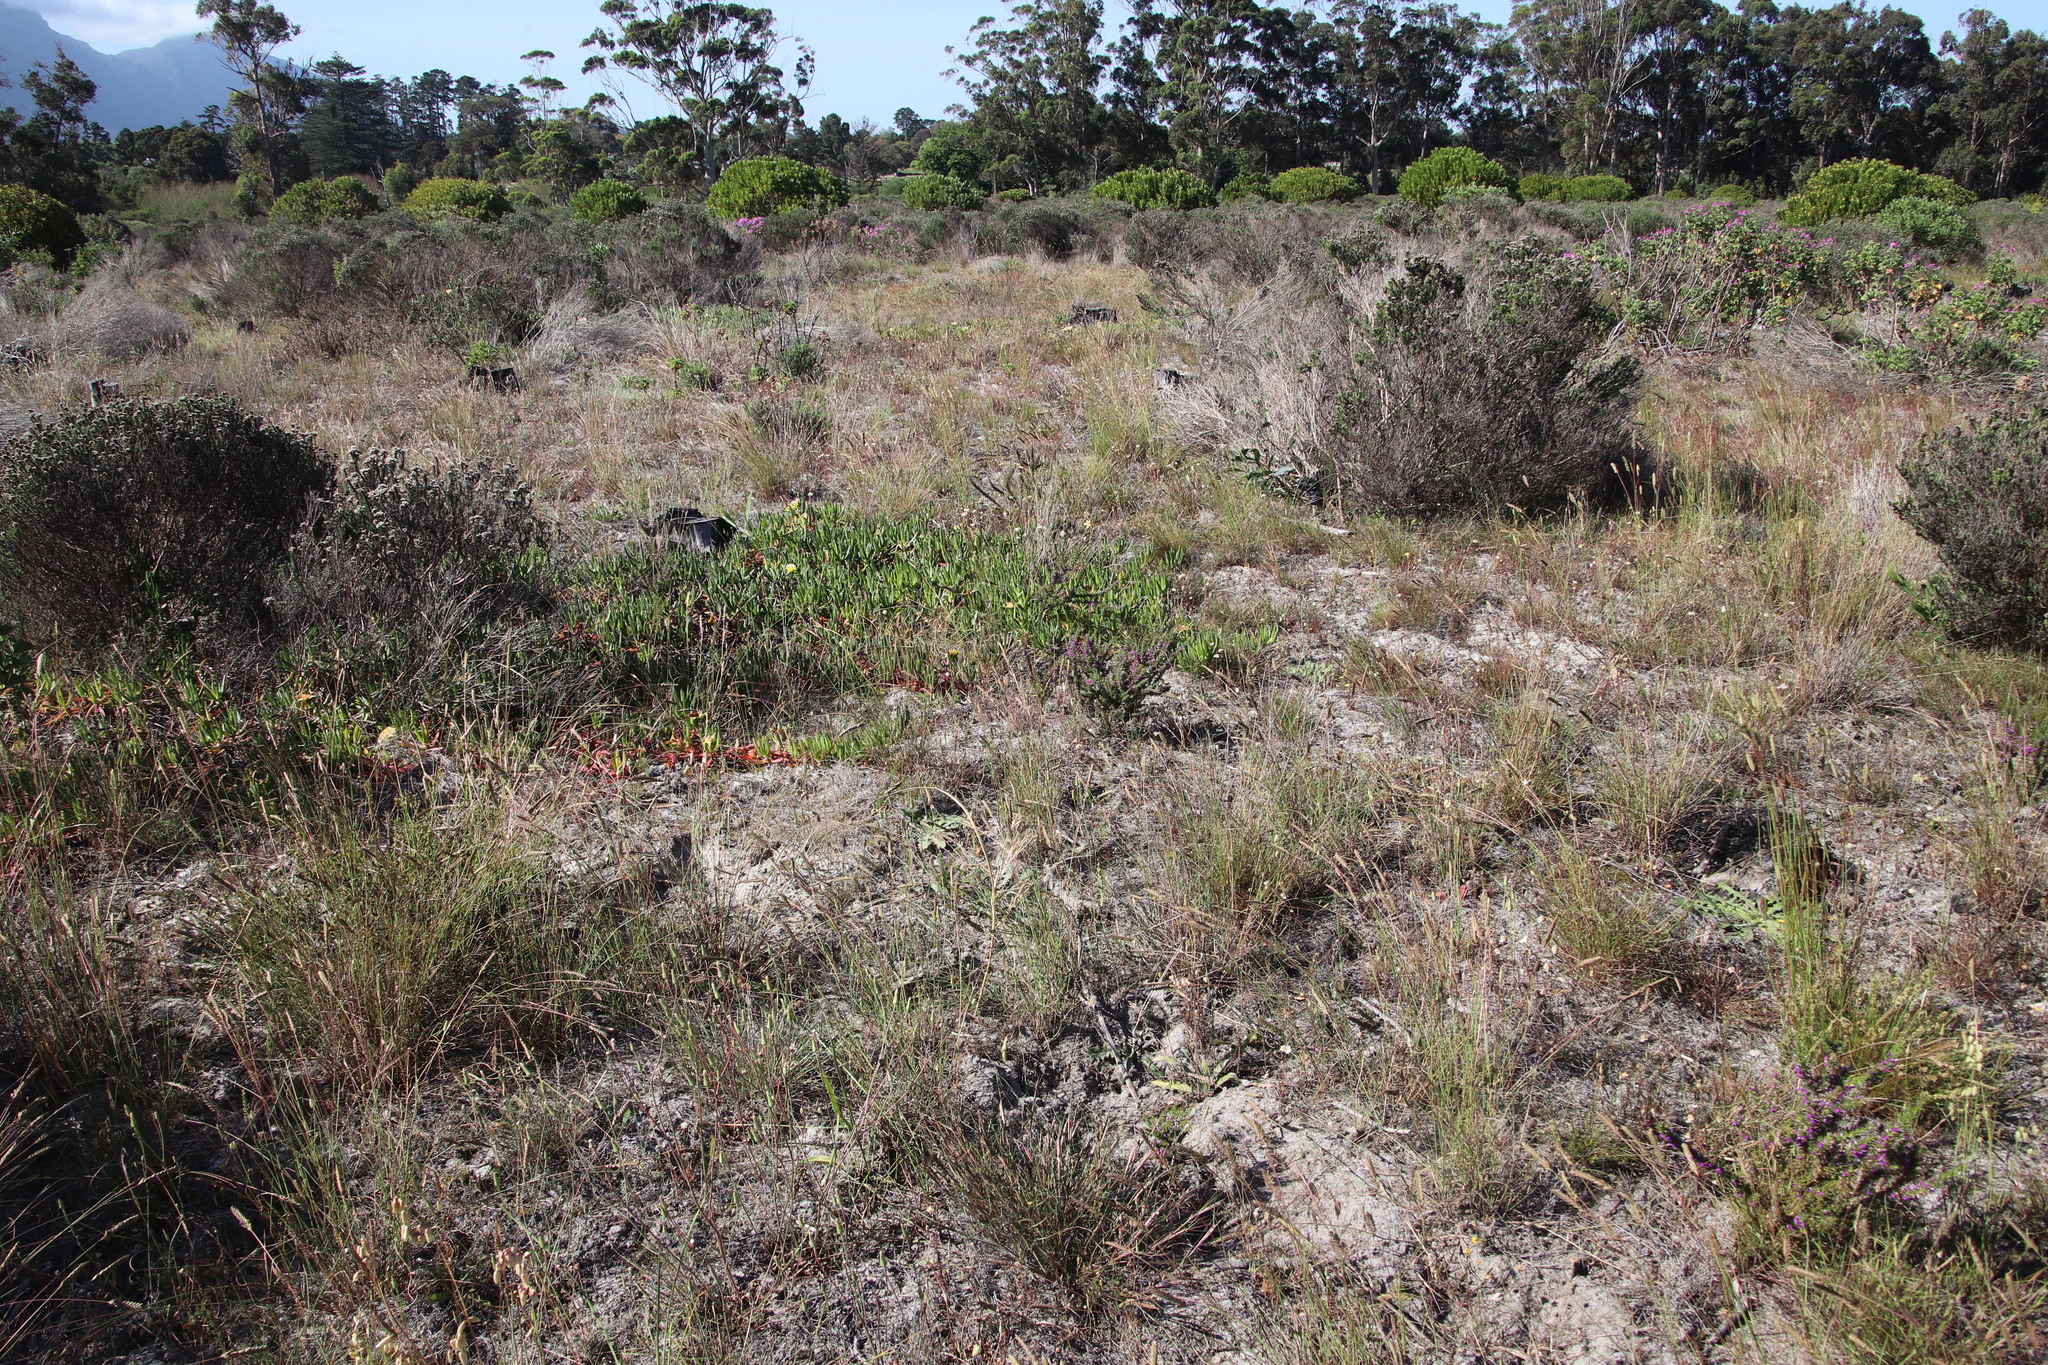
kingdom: Plantae
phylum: Tracheophyta
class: Liliopsida
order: Poales
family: Poaceae
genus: Tribolium
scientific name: Tribolium uniolae
